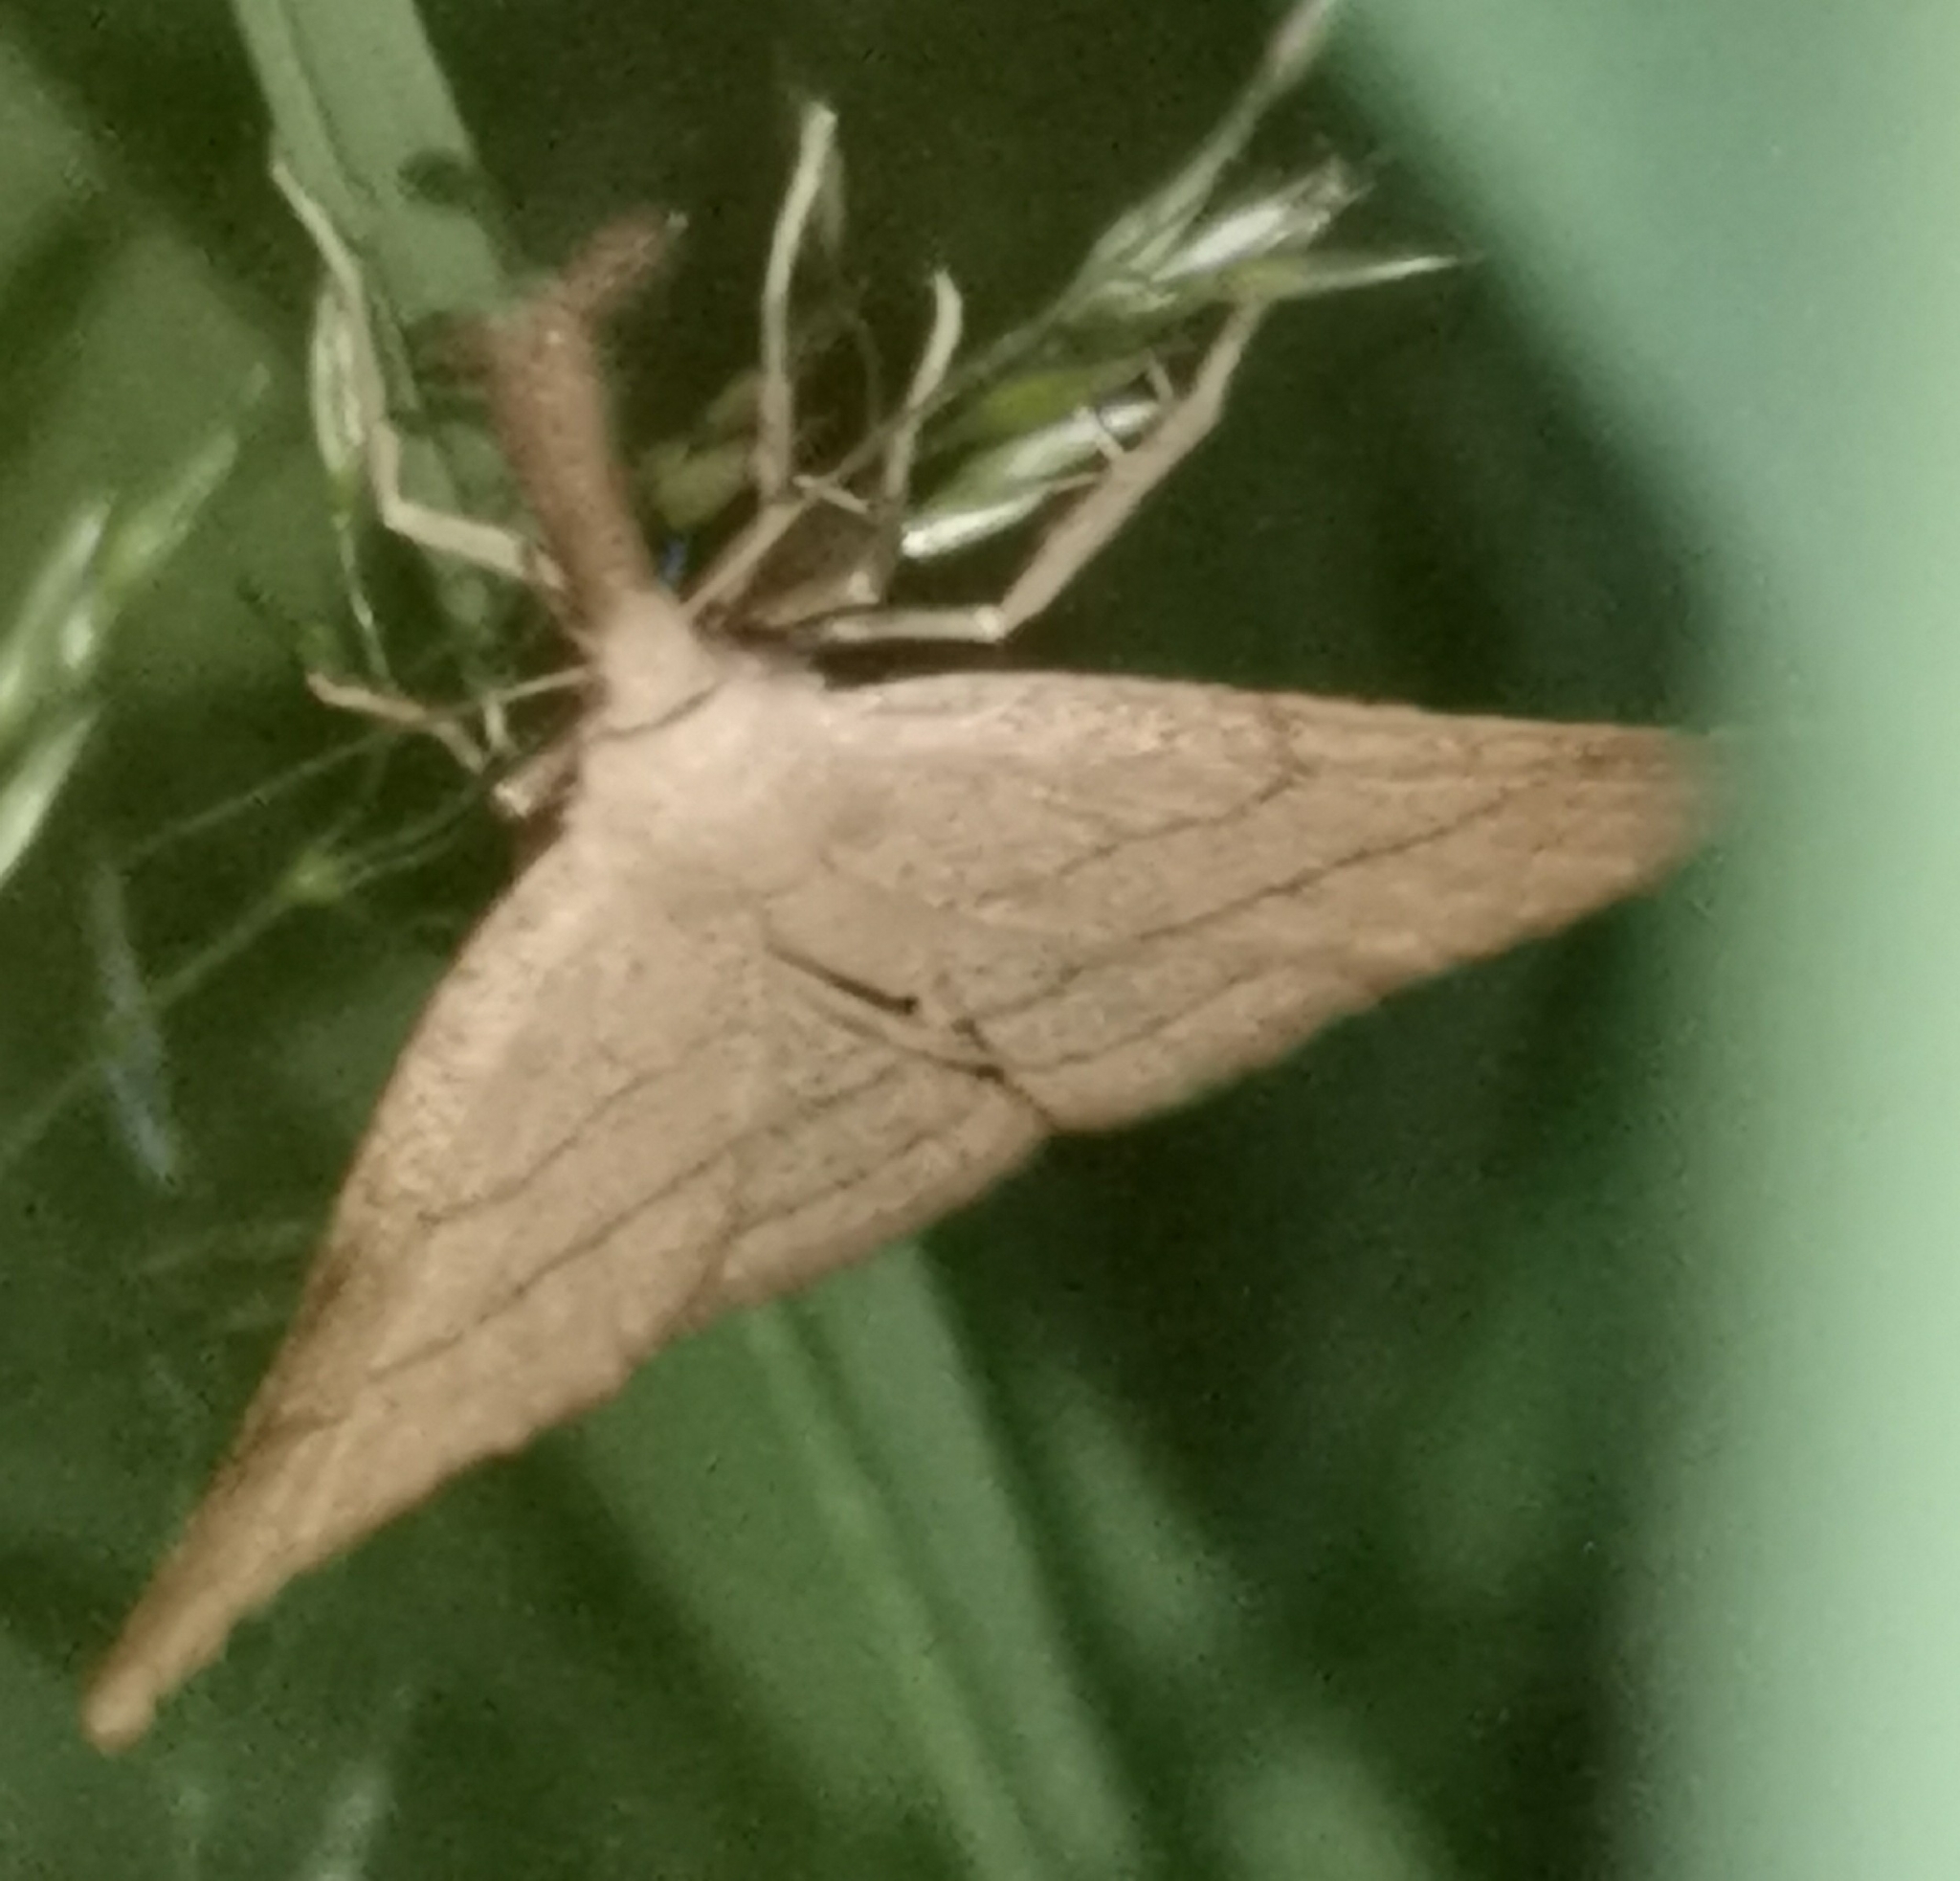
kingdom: Animalia
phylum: Arthropoda
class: Insecta
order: Lepidoptera
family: Erebidae
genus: Polypogon
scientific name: Polypogon tentacularia
